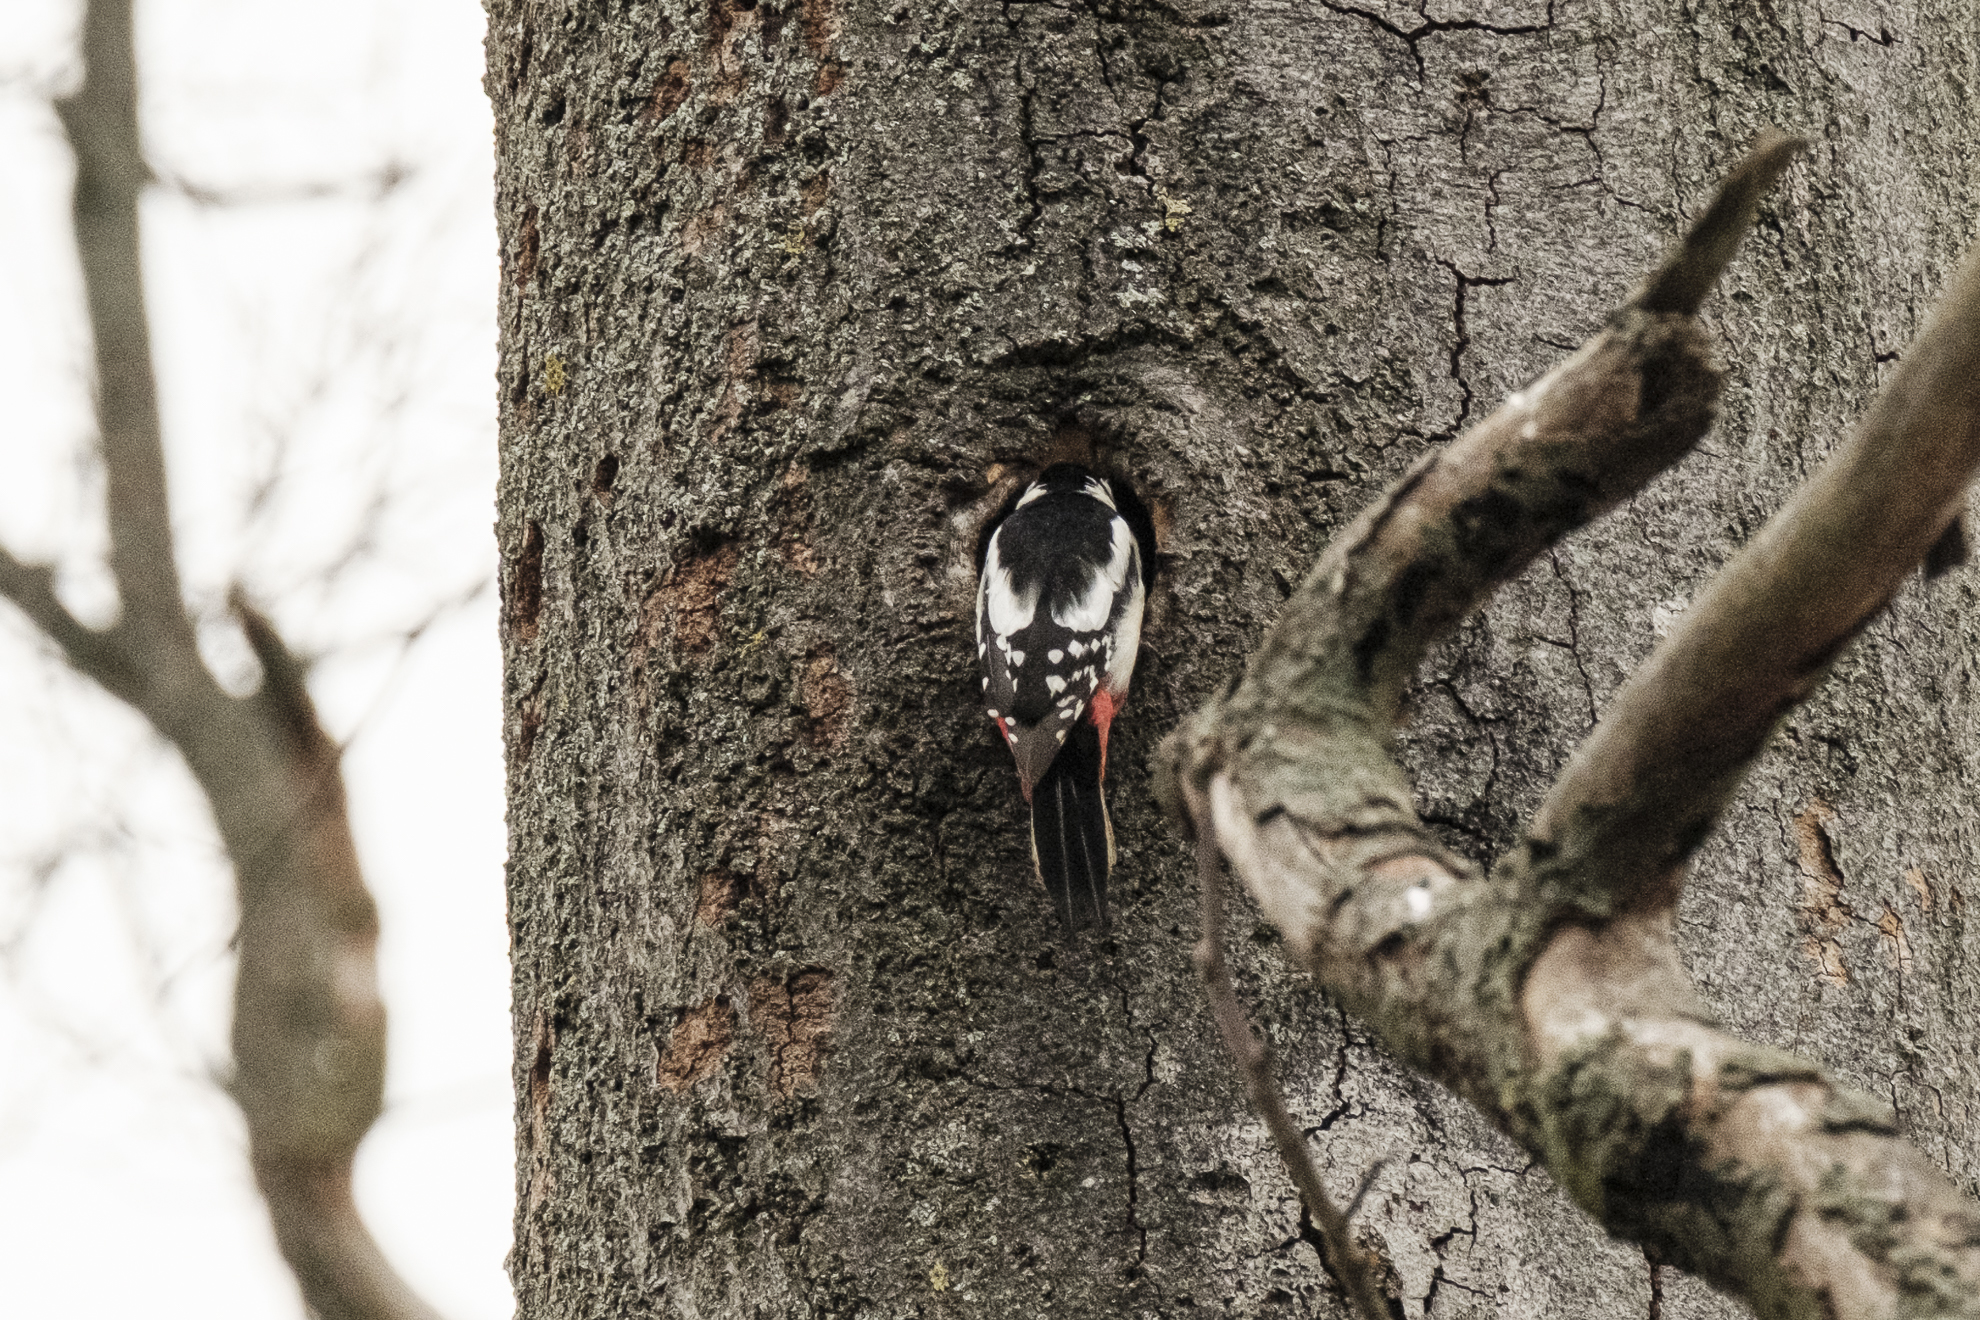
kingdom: Animalia
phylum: Chordata
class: Aves
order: Piciformes
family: Picidae
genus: Dendrocopos
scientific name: Dendrocopos major
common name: Great spotted woodpecker
